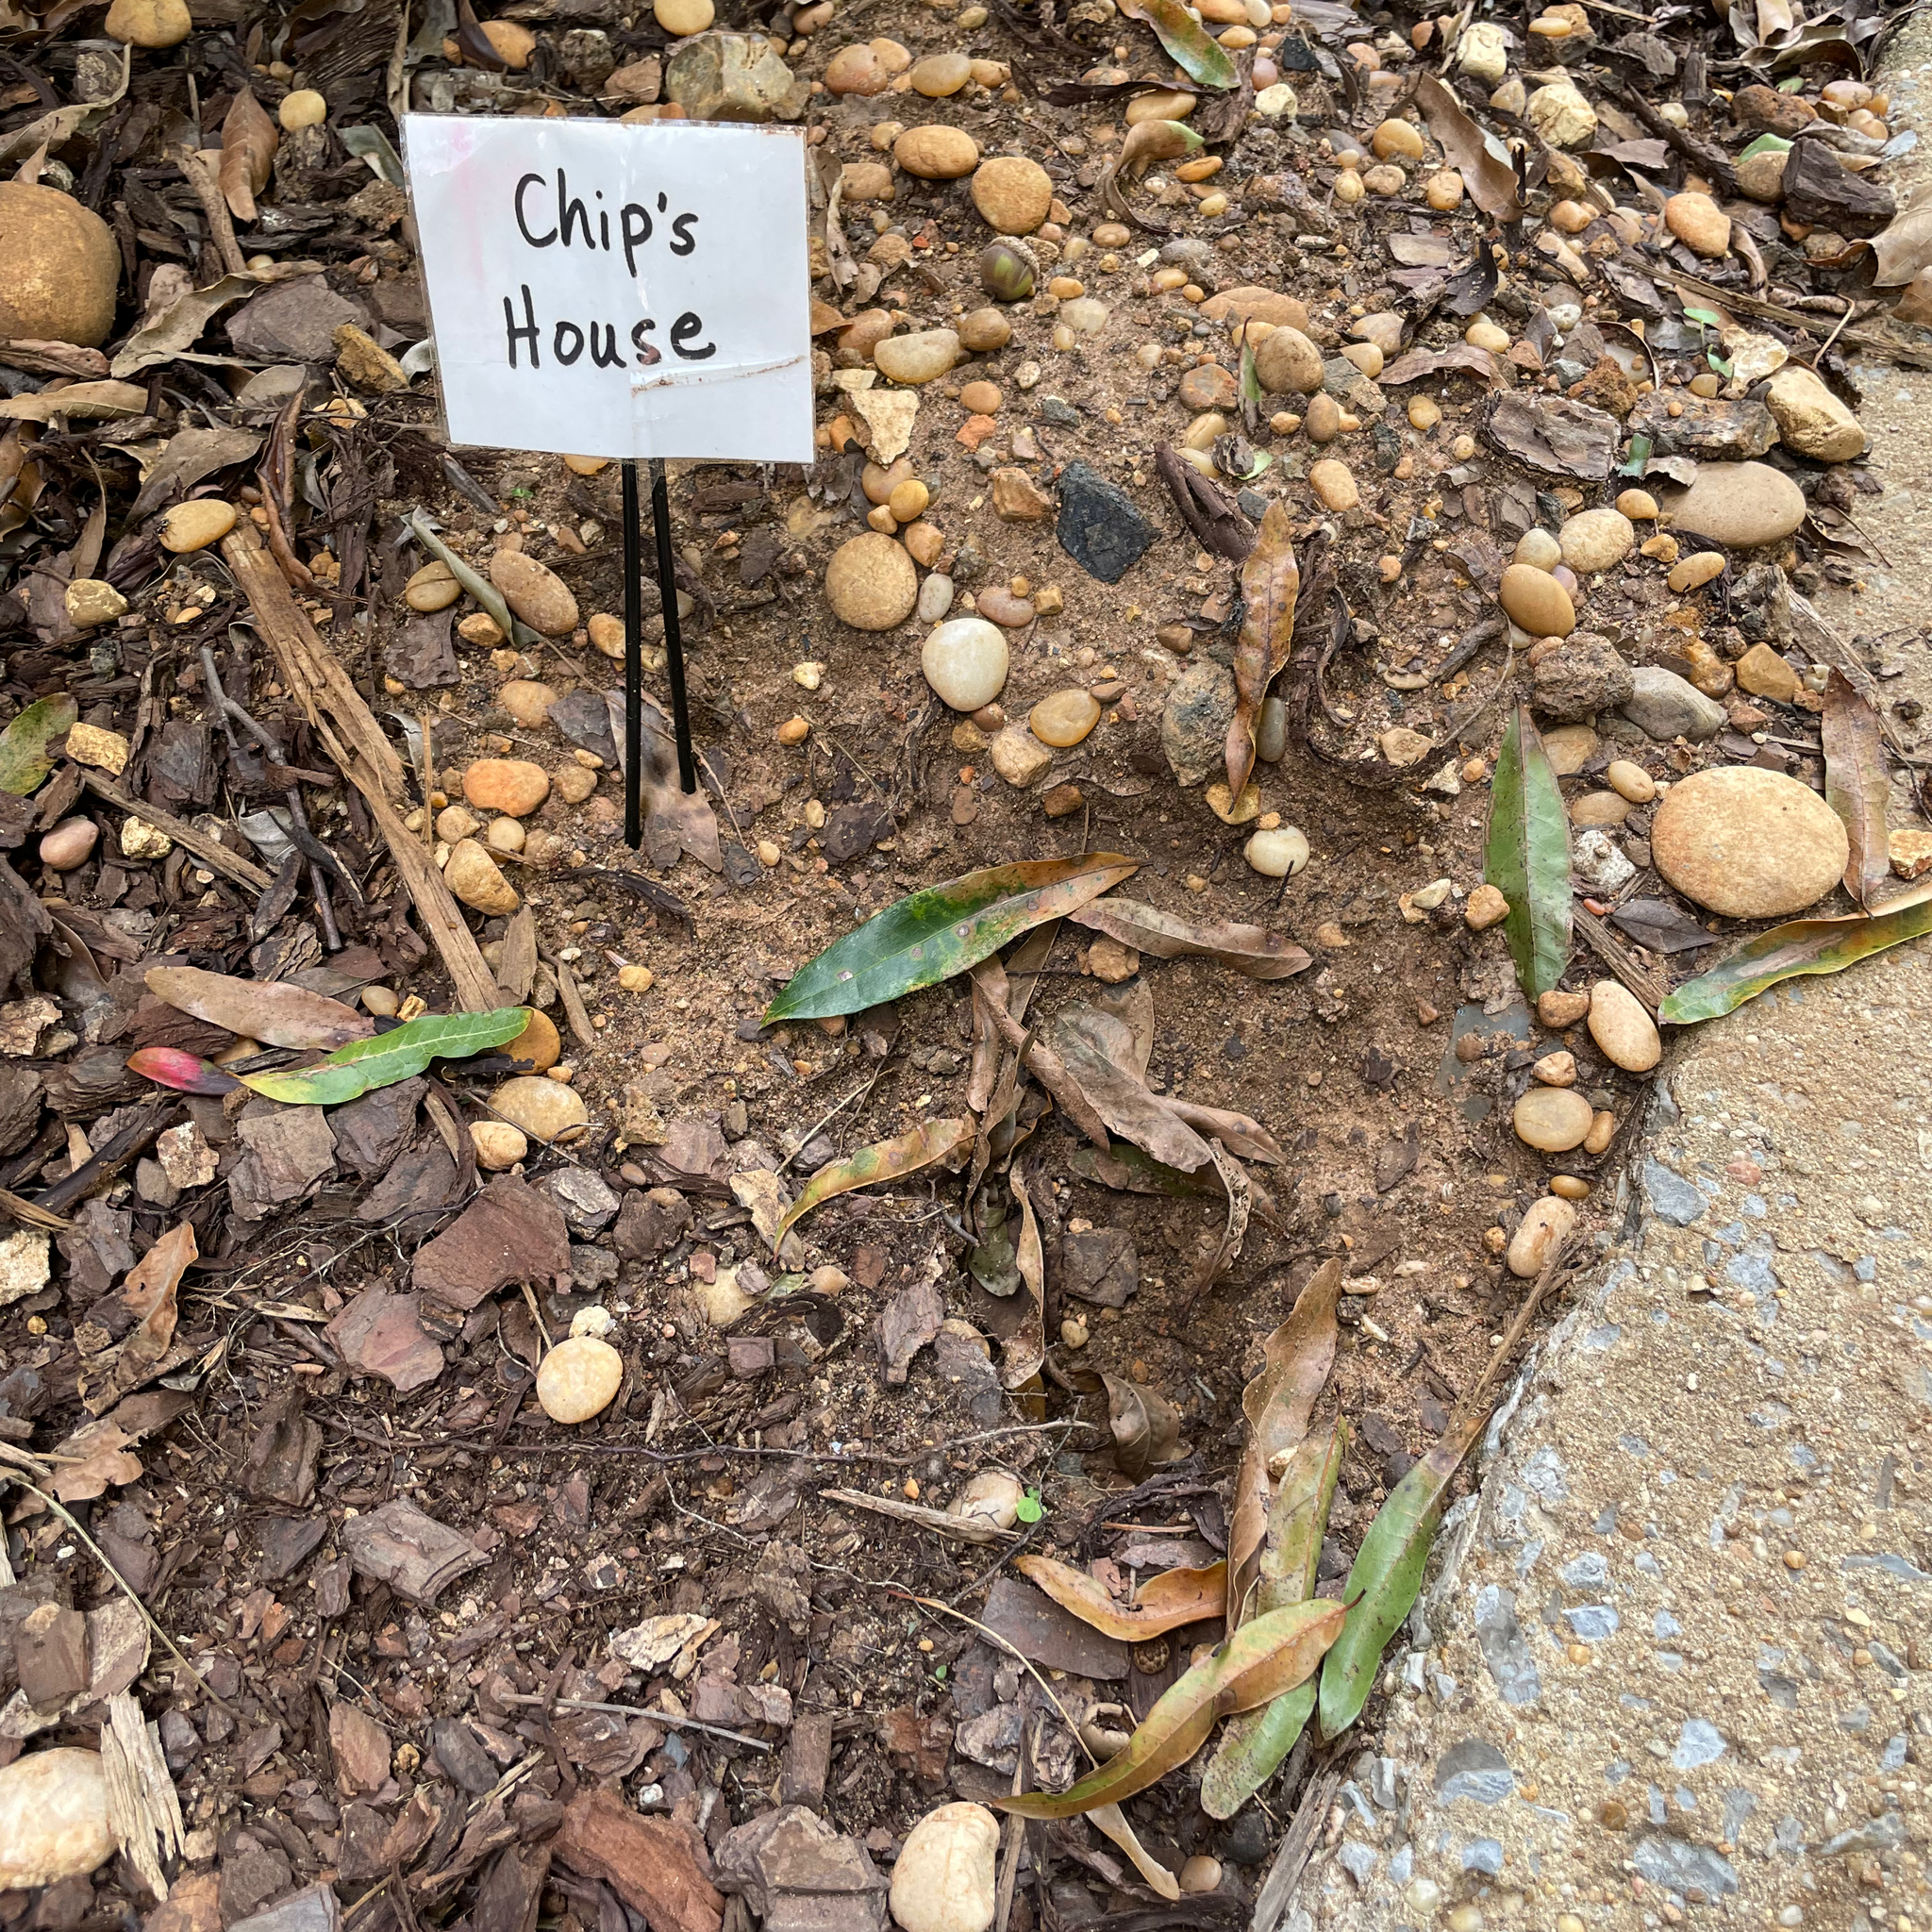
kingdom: Animalia
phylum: Chordata
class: Mammalia
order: Rodentia
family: Sciuridae
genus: Tamias
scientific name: Tamias striatus
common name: Eastern chipmunk
